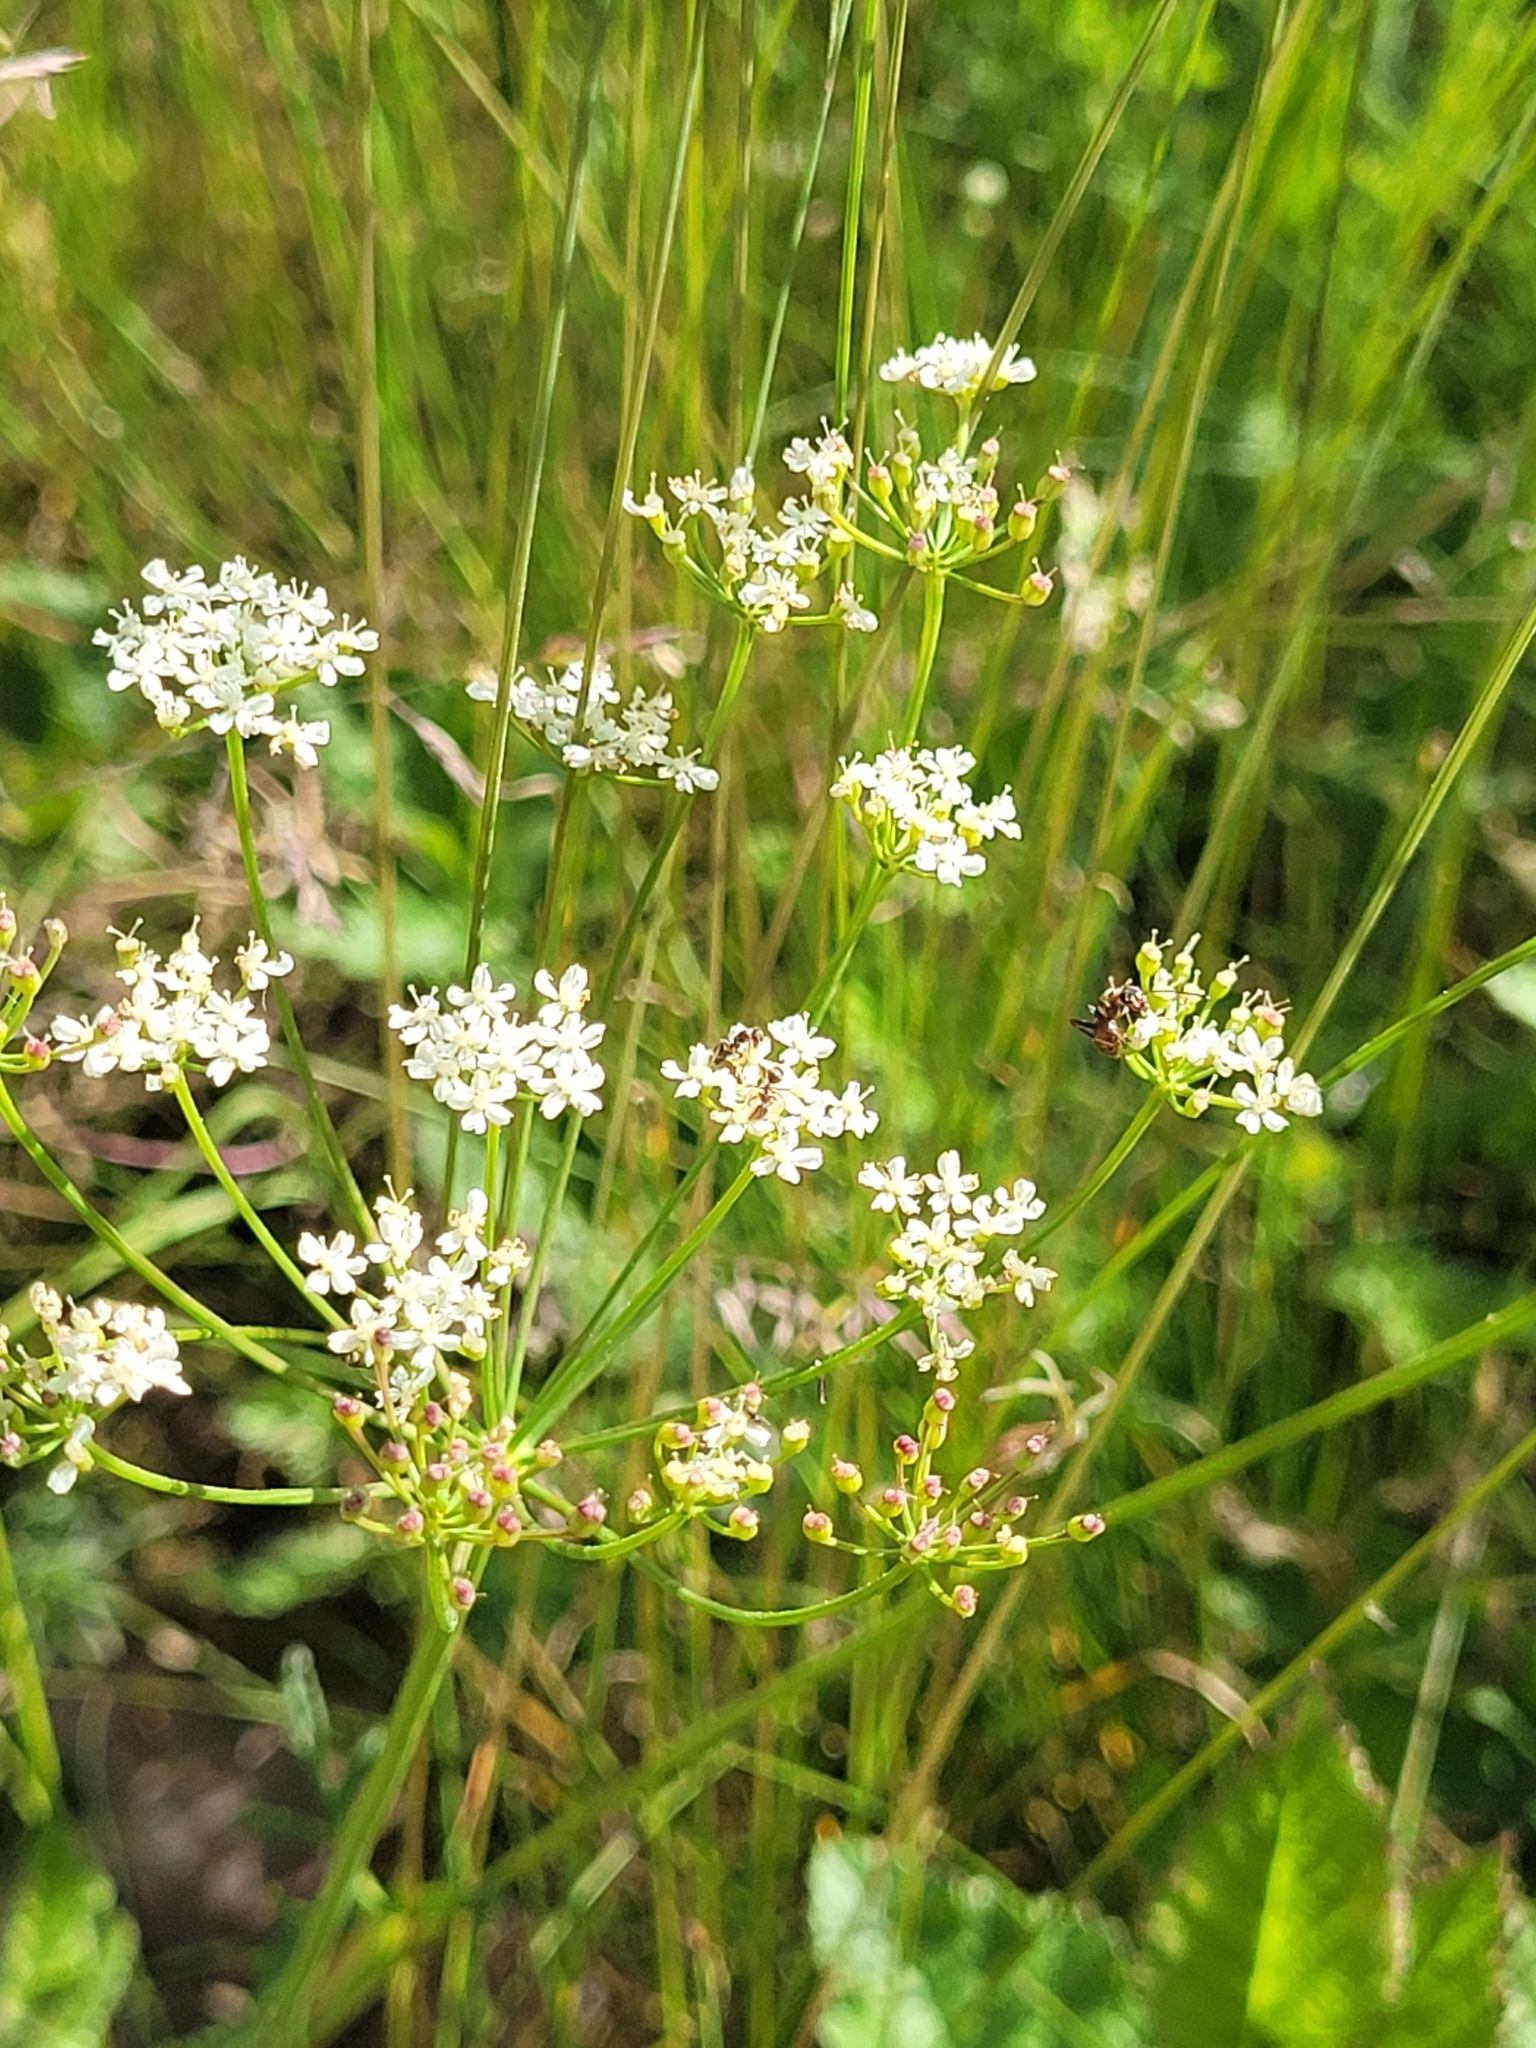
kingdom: Plantae
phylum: Tracheophyta
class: Magnoliopsida
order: Apiales
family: Apiaceae
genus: Pimpinella
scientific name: Pimpinella saxifraga
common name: Burnet-saxifrage
